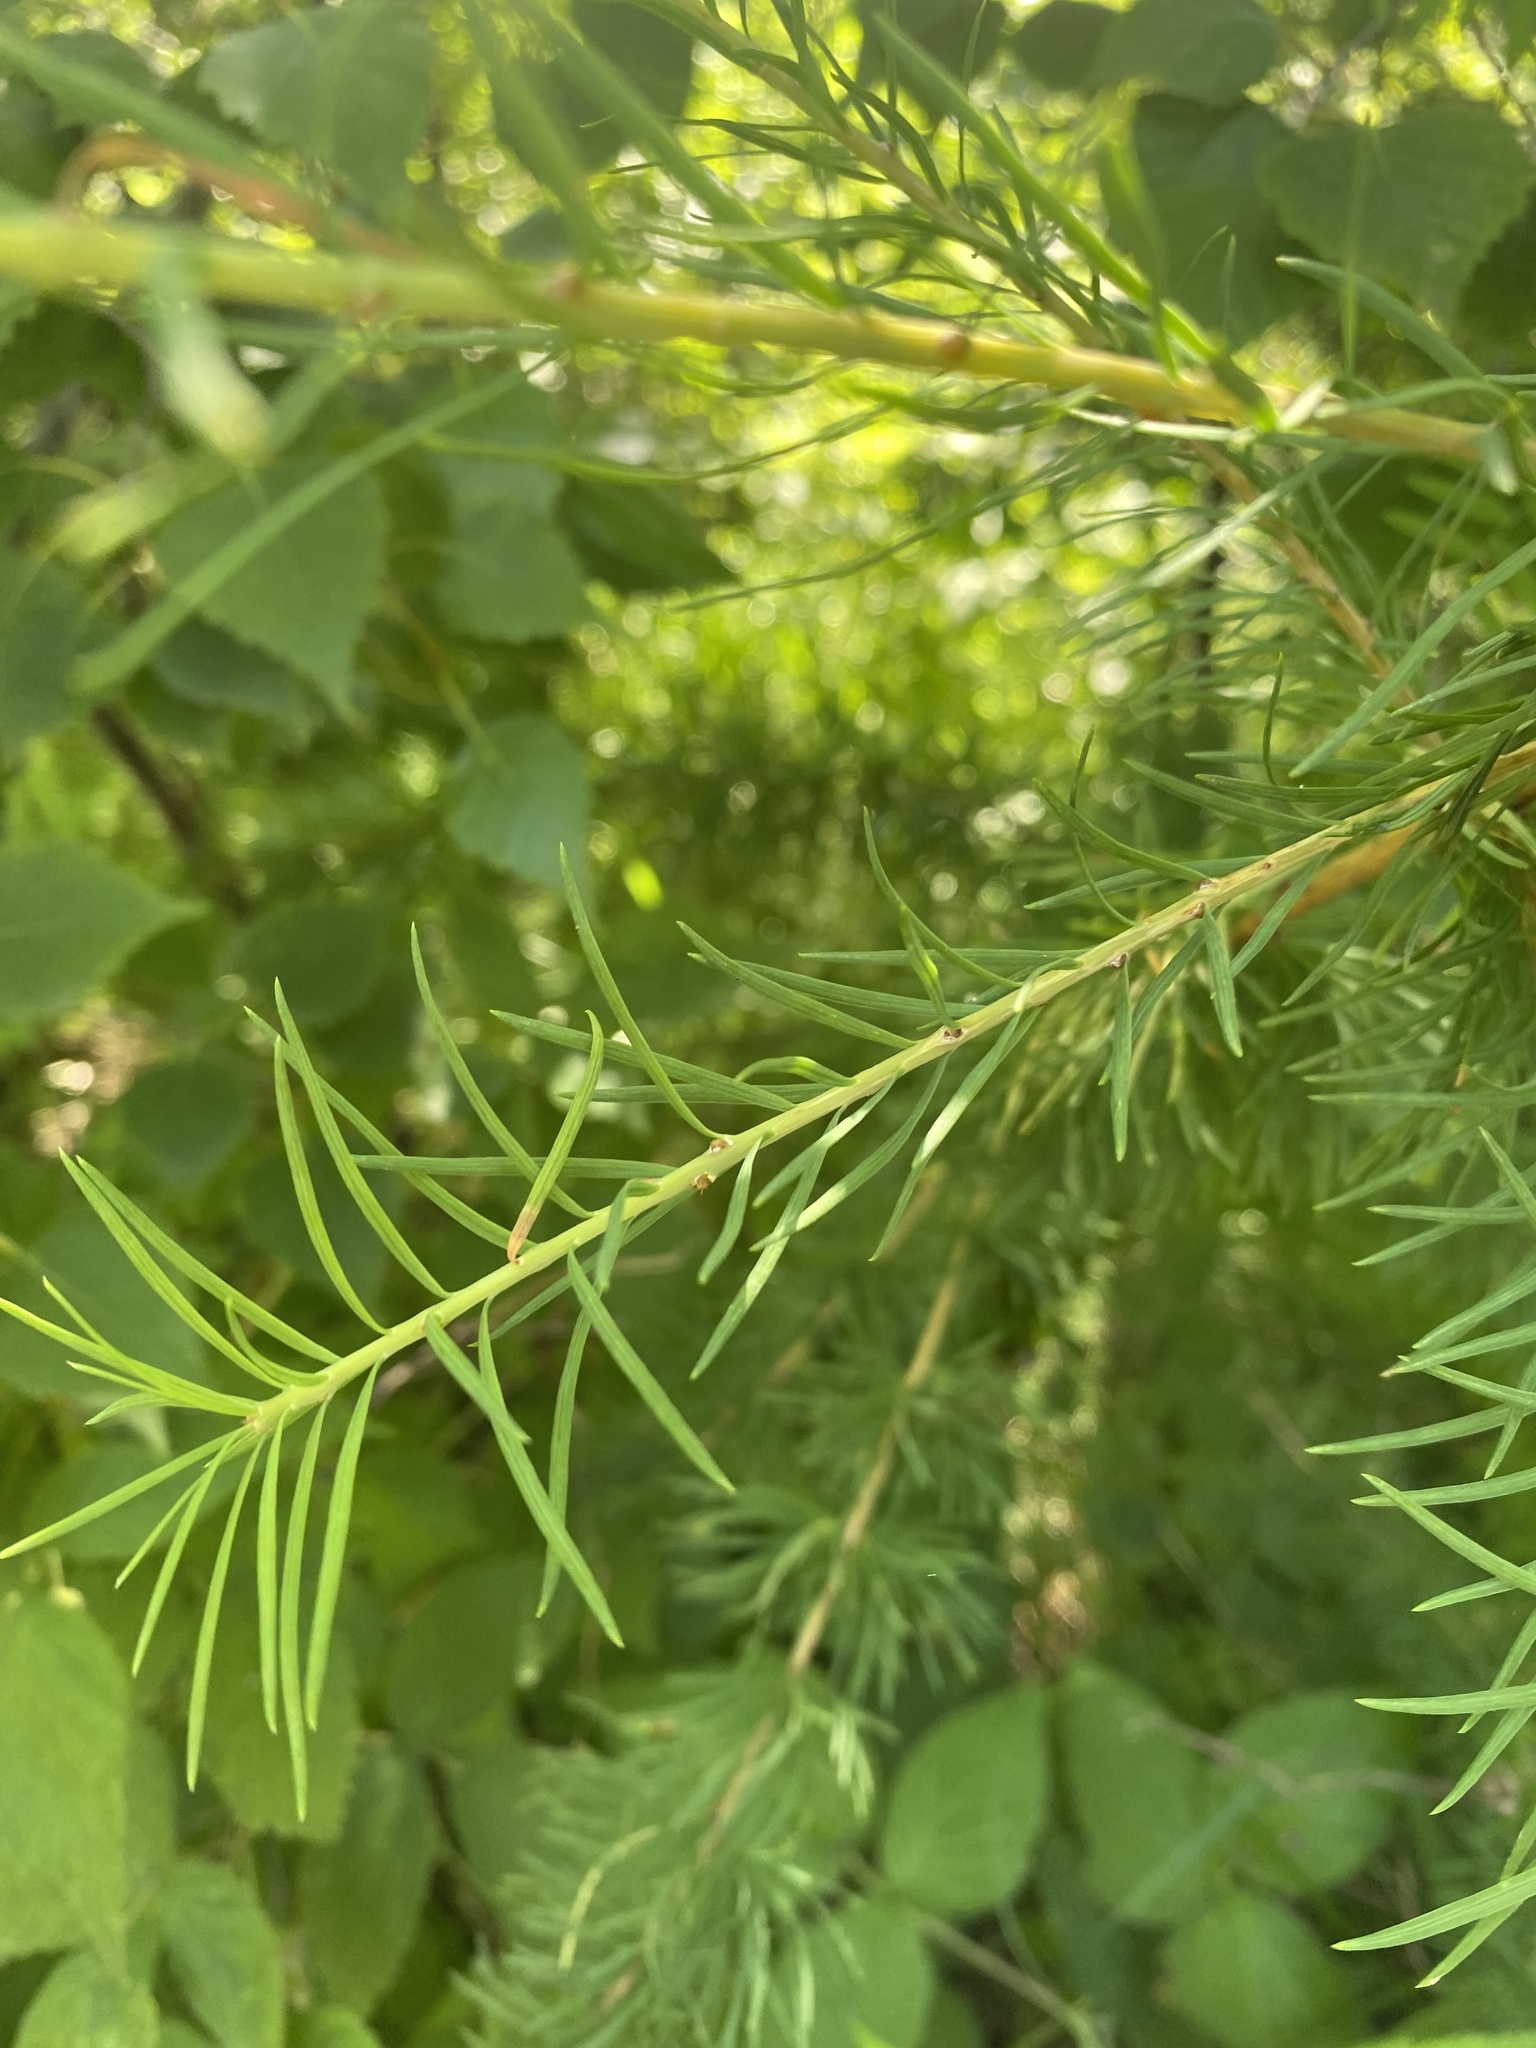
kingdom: Plantae
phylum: Tracheophyta
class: Pinopsida
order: Pinales
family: Pinaceae
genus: Larix
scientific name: Larix sibirica
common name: Siberian larch
